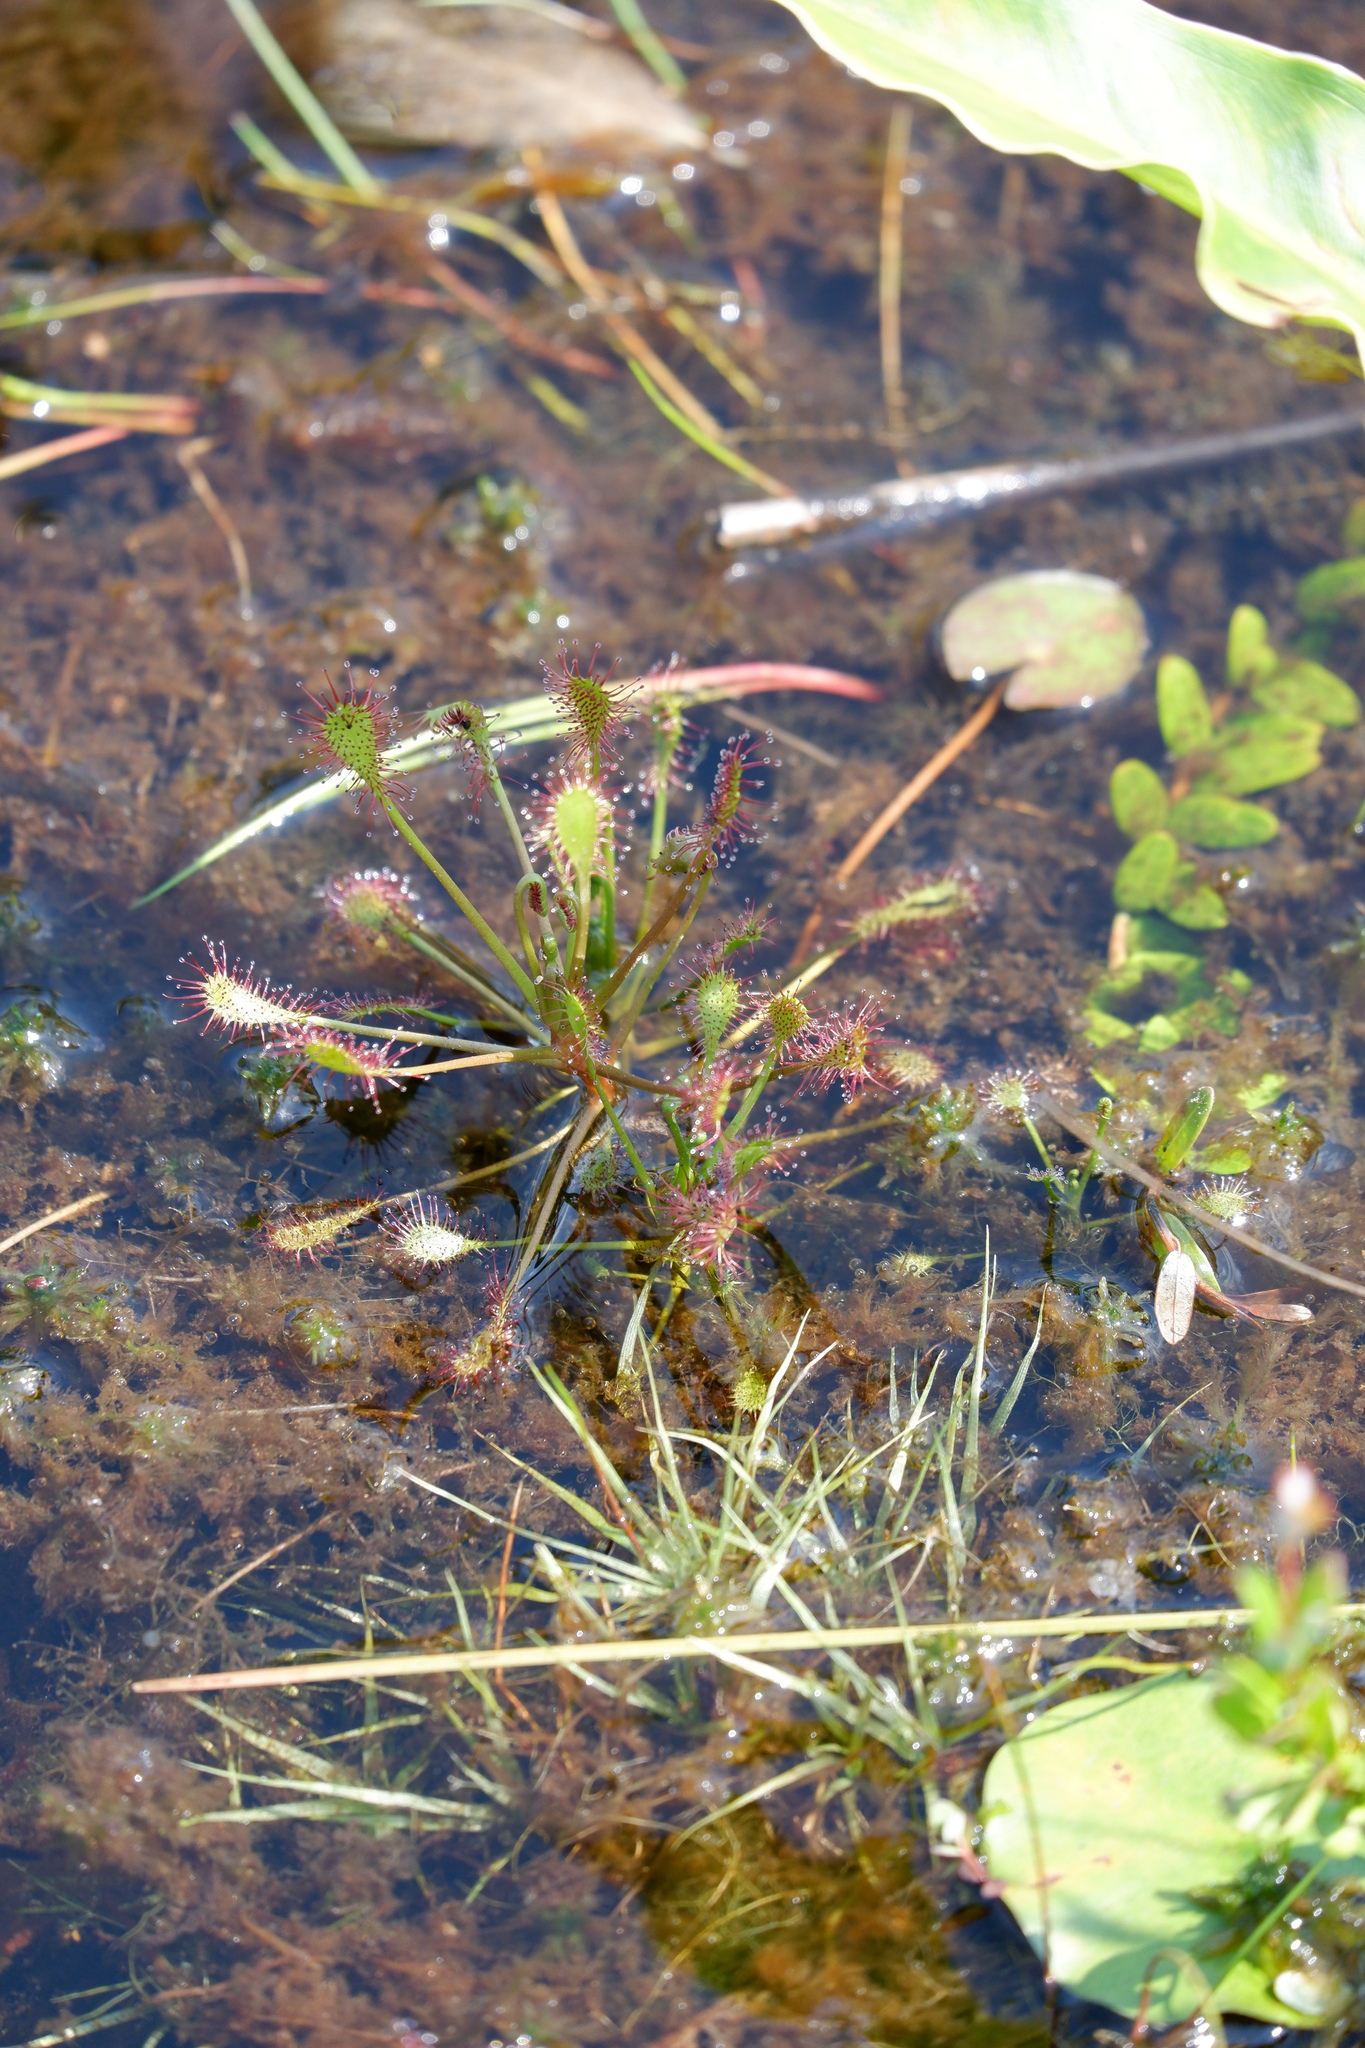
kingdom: Plantae
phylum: Tracheophyta
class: Magnoliopsida
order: Caryophyllales
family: Droseraceae
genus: Drosera
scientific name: Drosera intermedia
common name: Oblong-leaved sundew
